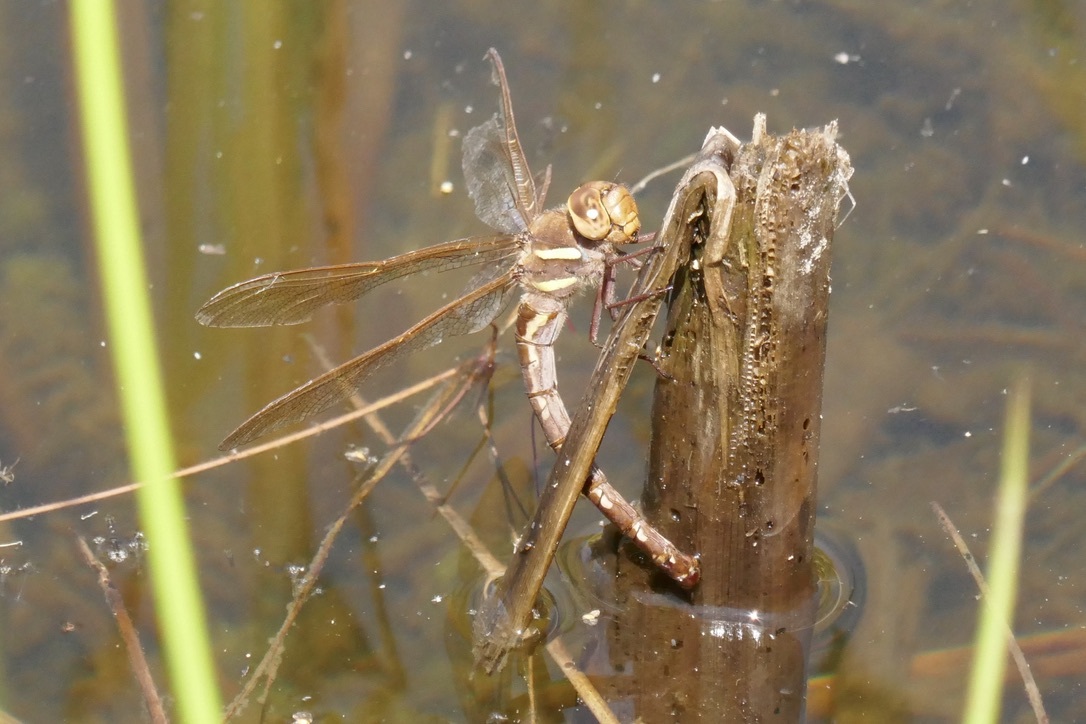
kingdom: Animalia
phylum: Arthropoda
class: Insecta
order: Odonata
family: Aeshnidae
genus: Aeshna
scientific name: Aeshna grandis
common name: Brown hawker
